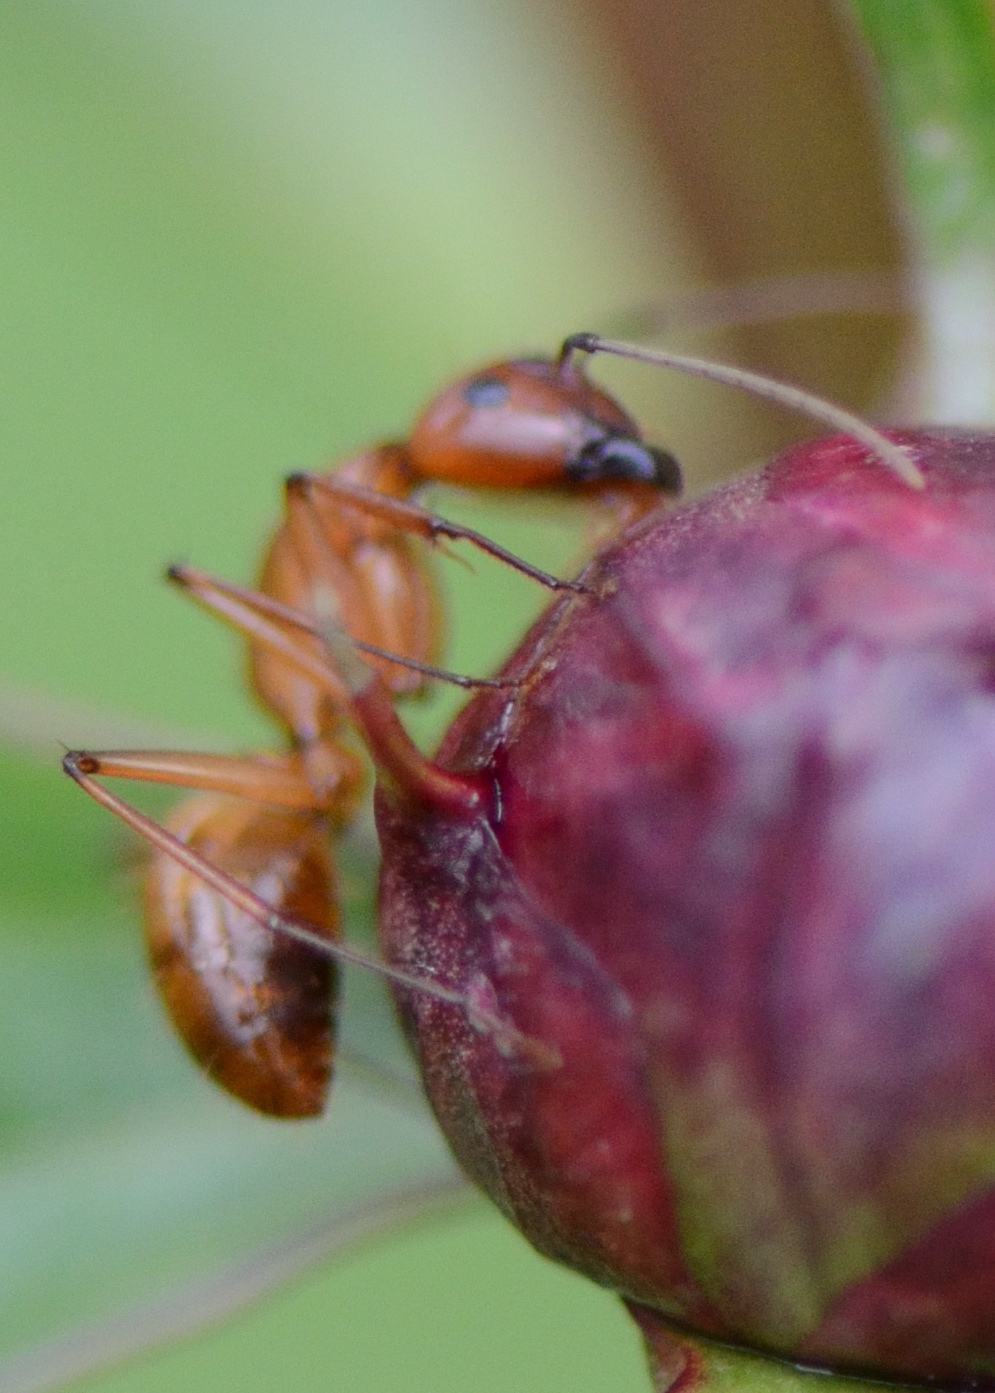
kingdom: Animalia
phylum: Arthropoda
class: Insecta
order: Hymenoptera
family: Formicidae
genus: Camponotus
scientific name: Camponotus castaneus
